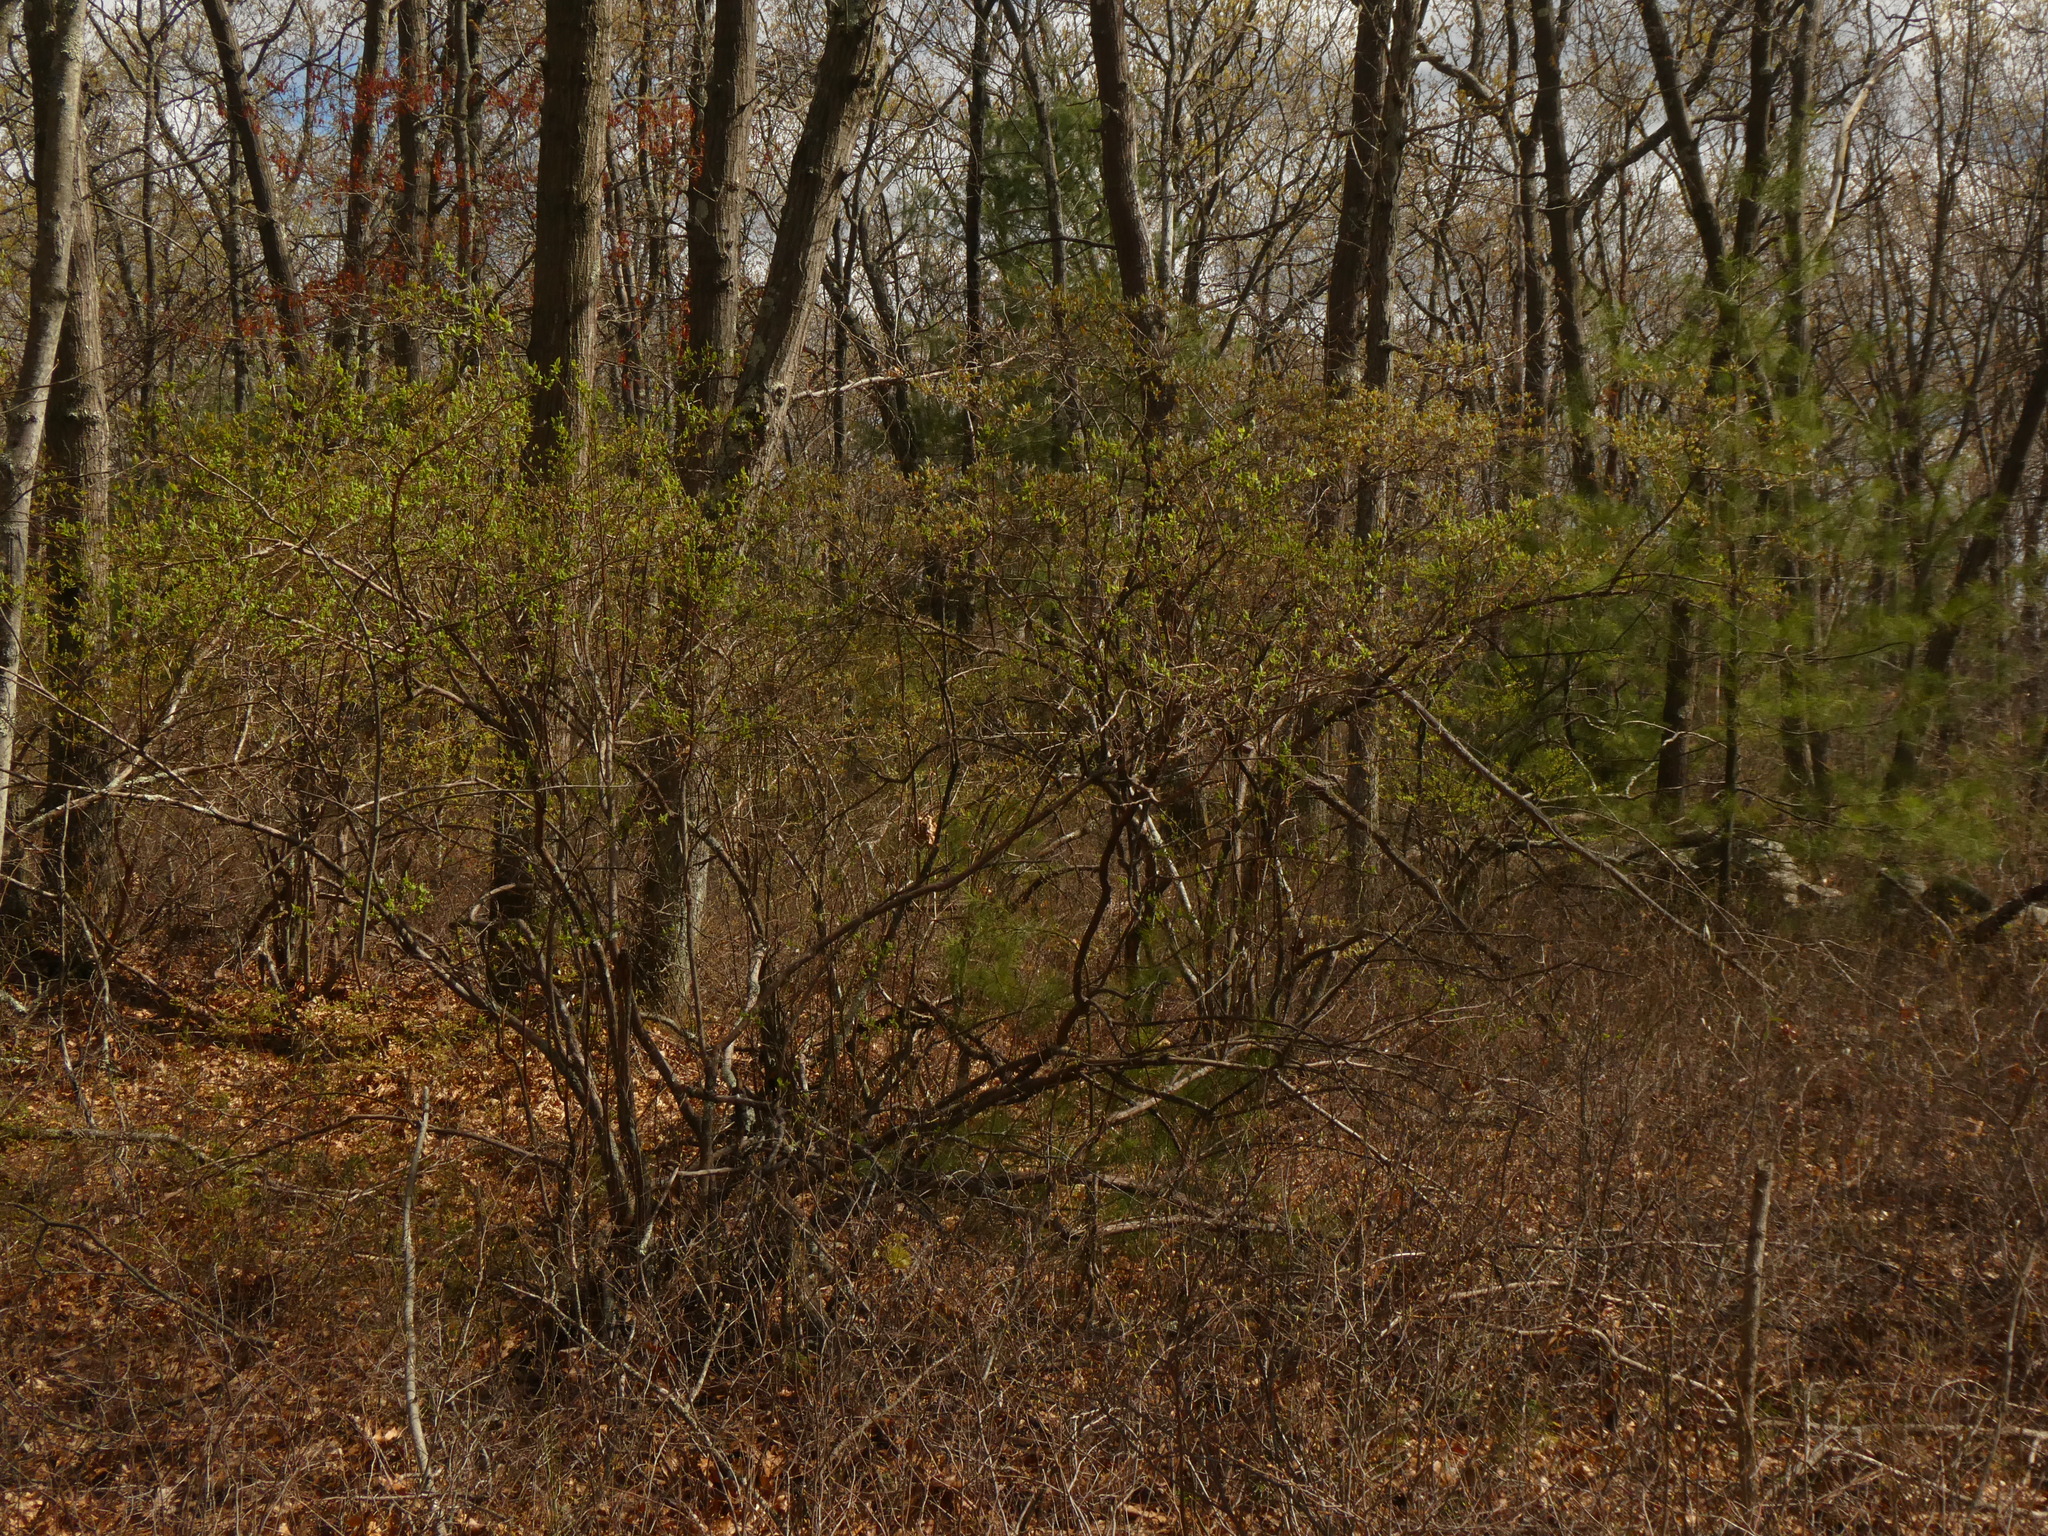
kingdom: Plantae
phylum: Tracheophyta
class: Magnoliopsida
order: Ericales
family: Ericaceae
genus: Vaccinium
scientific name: Vaccinium corymbosum
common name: Blueberry
